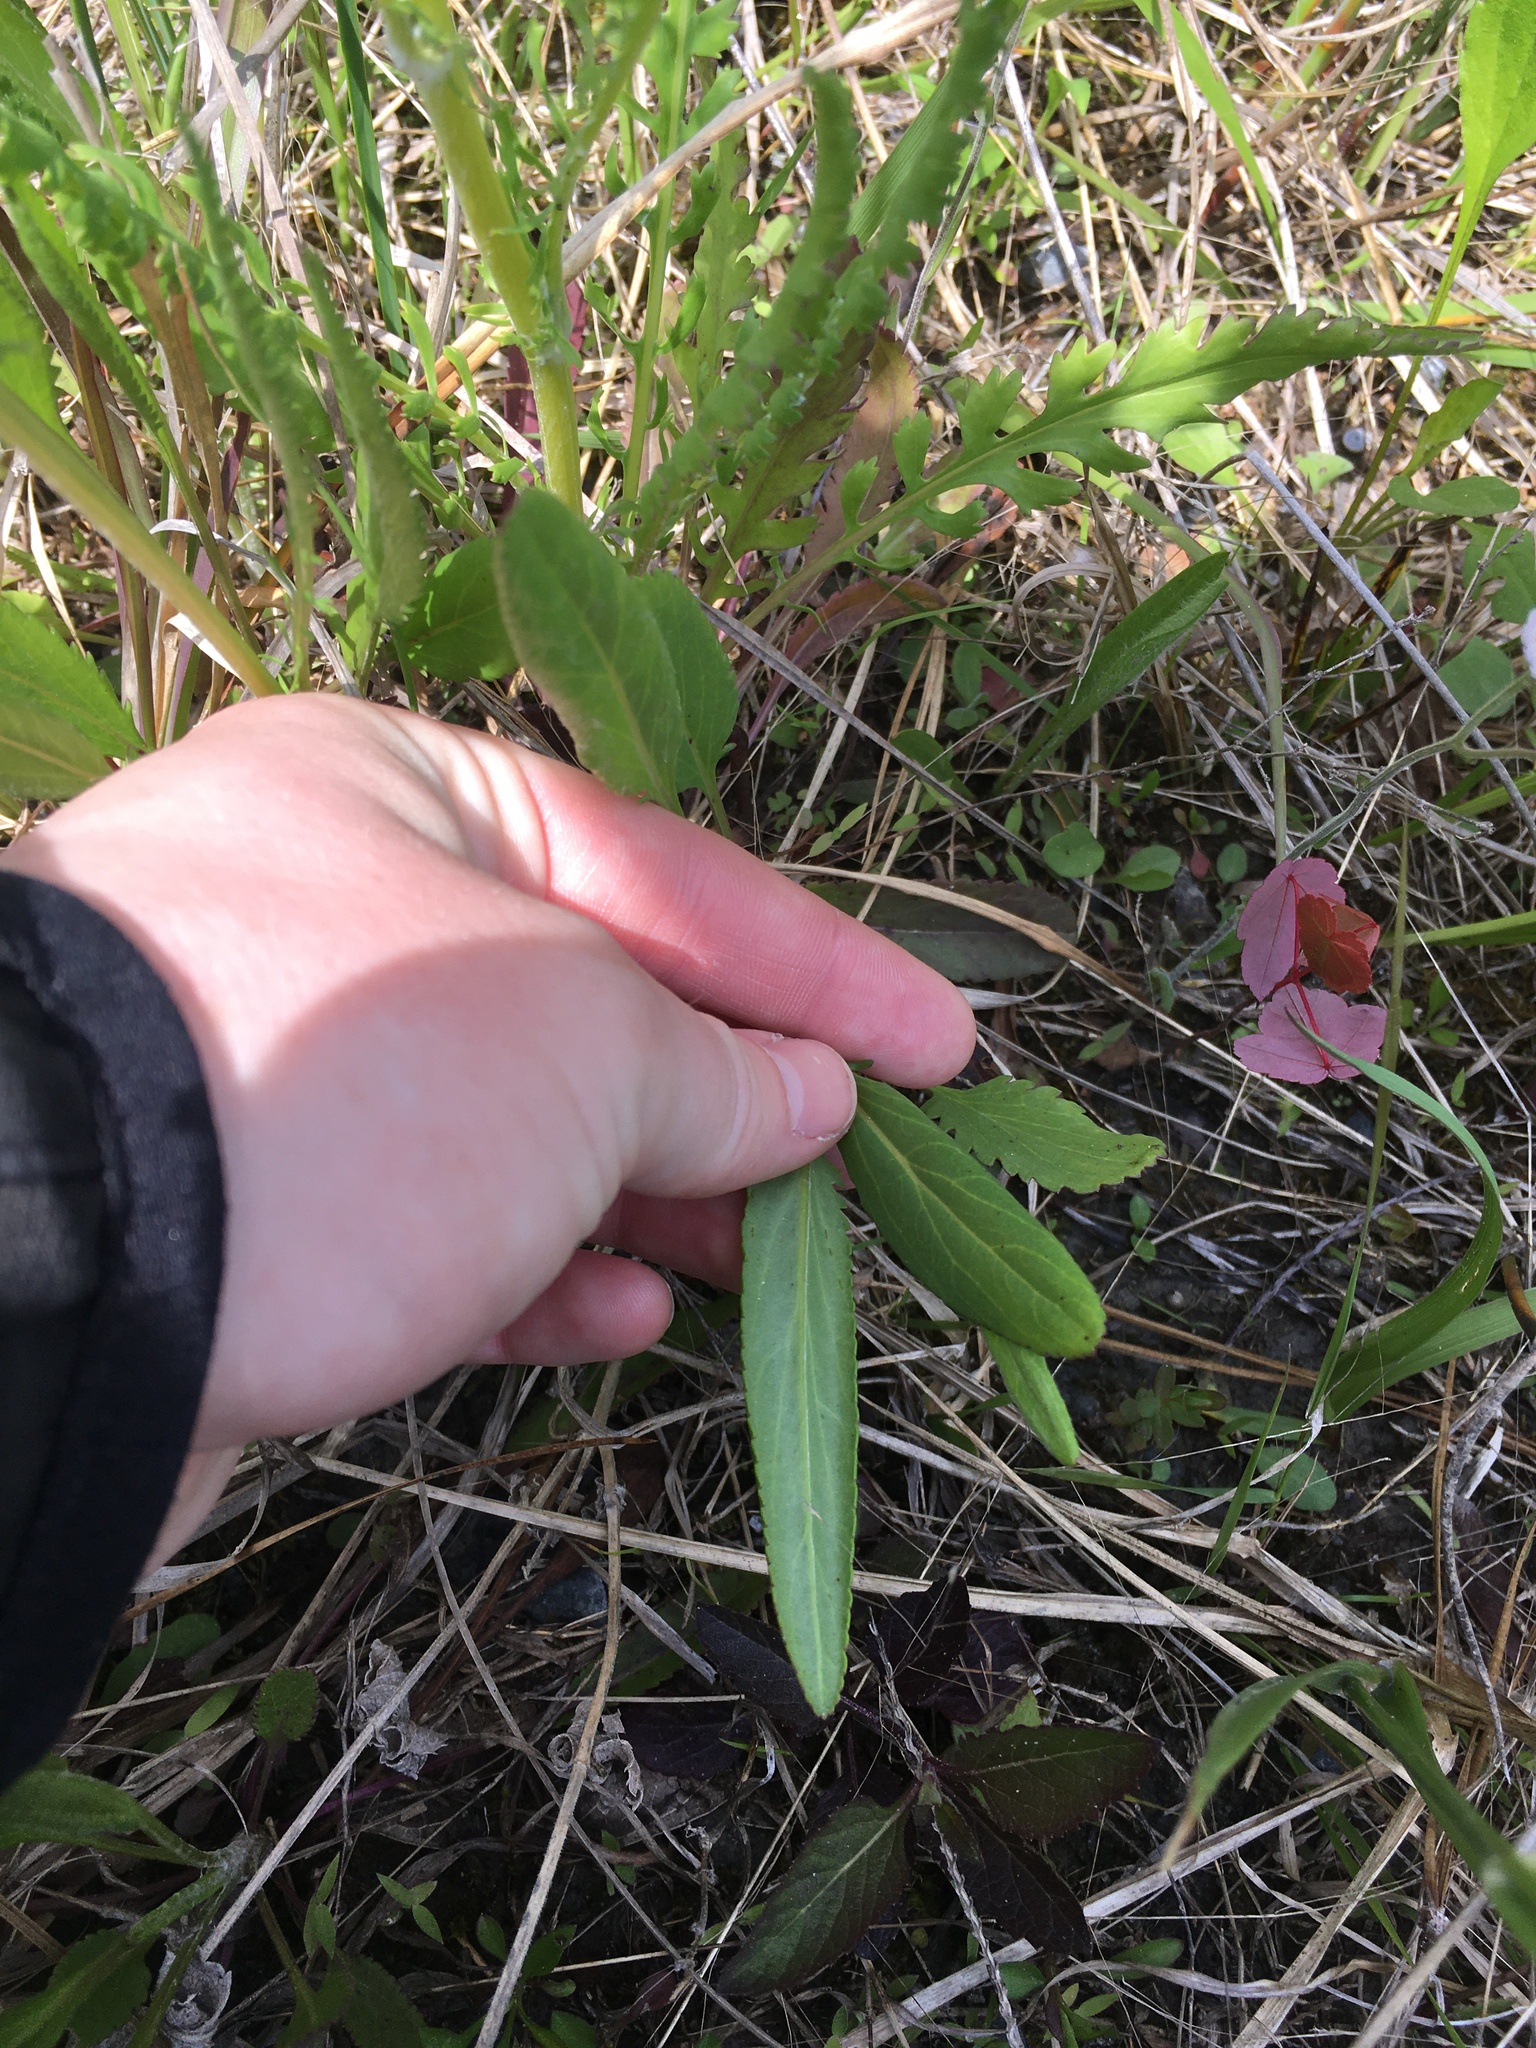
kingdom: Plantae
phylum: Tracheophyta
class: Magnoliopsida
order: Asterales
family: Asteraceae
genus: Packera
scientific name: Packera anonyma
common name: Small ragwort
